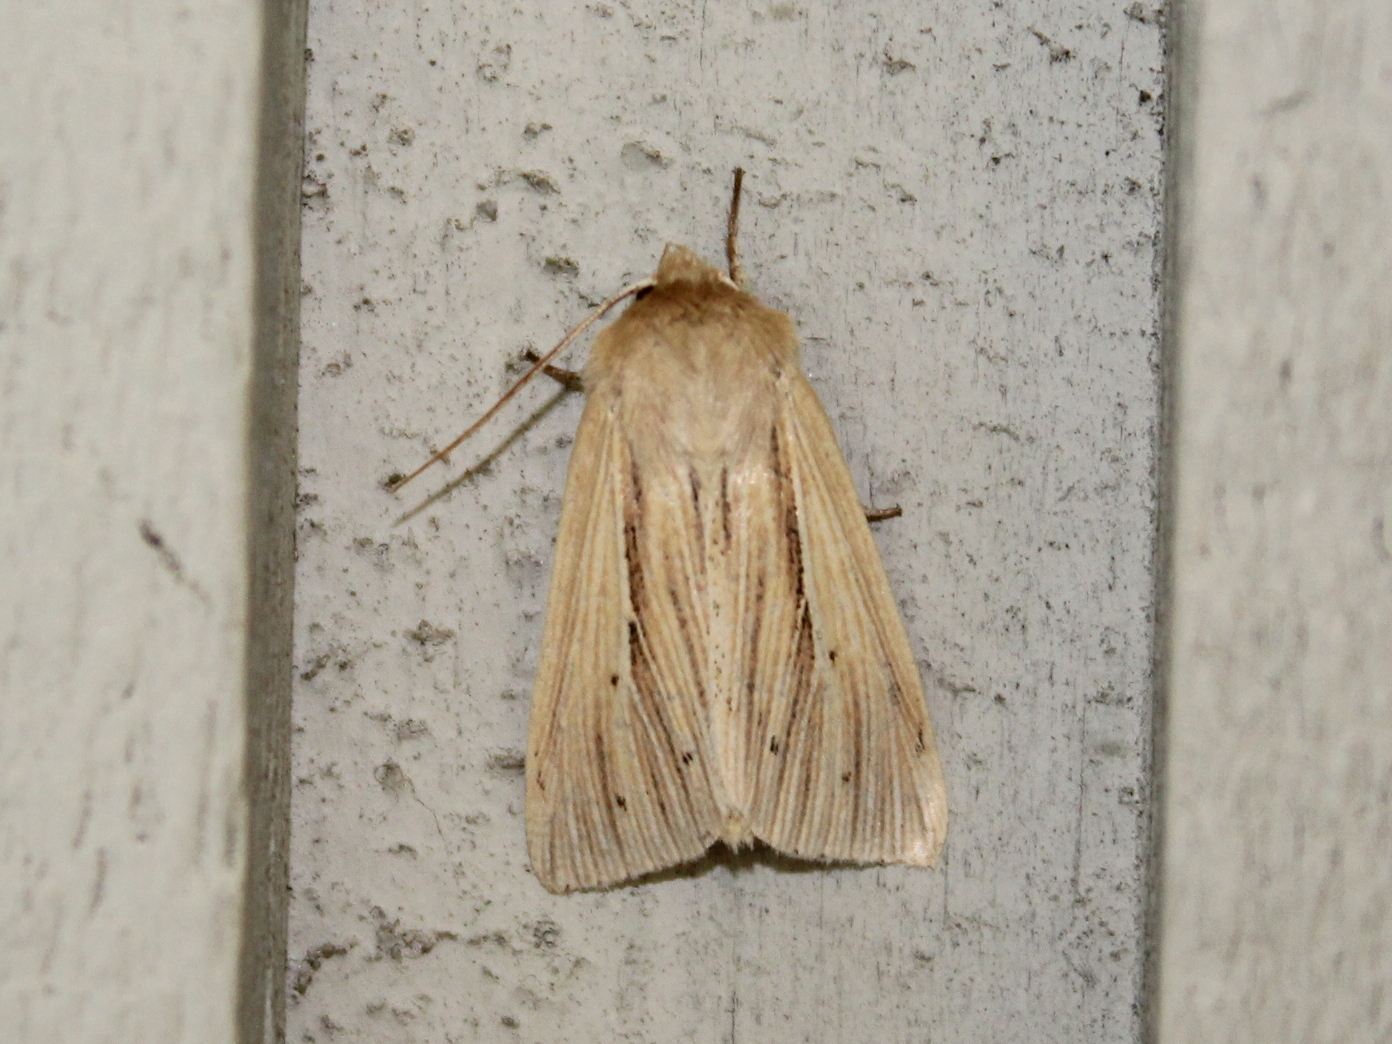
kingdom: Animalia
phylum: Arthropoda
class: Insecta
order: Lepidoptera
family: Noctuidae
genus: Mythimna
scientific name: Mythimna oxygala
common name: Lesser wainscot
